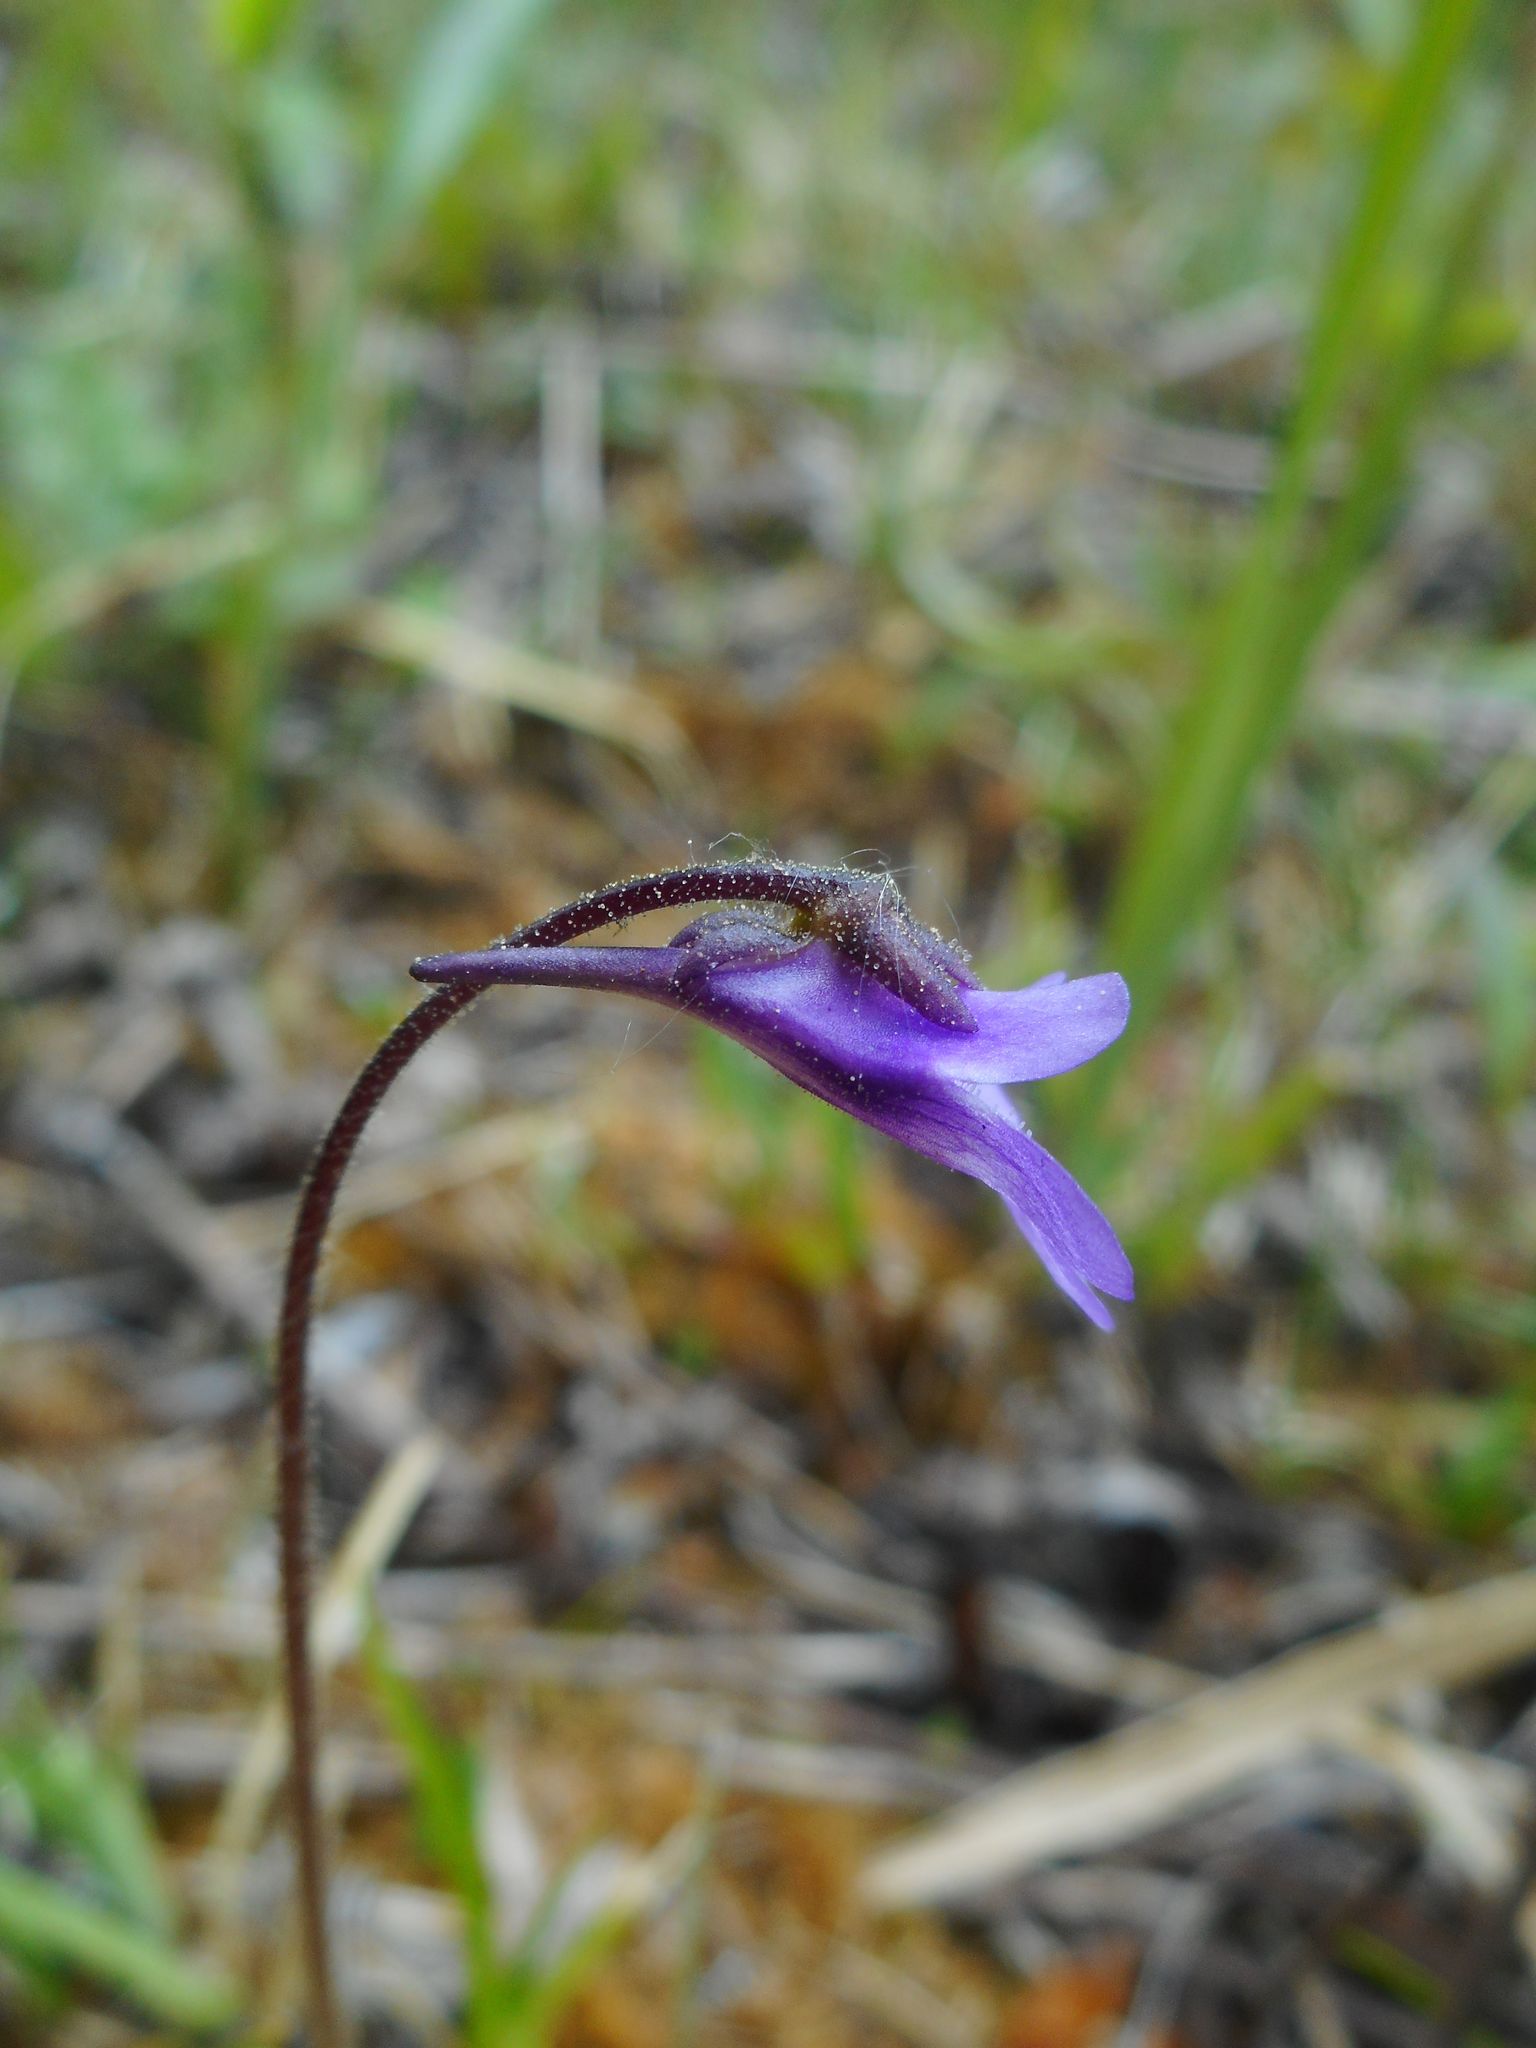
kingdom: Plantae
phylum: Tracheophyta
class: Magnoliopsida
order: Lamiales
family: Lentibulariaceae
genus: Pinguicula
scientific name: Pinguicula vulgaris
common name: Common butterwort
